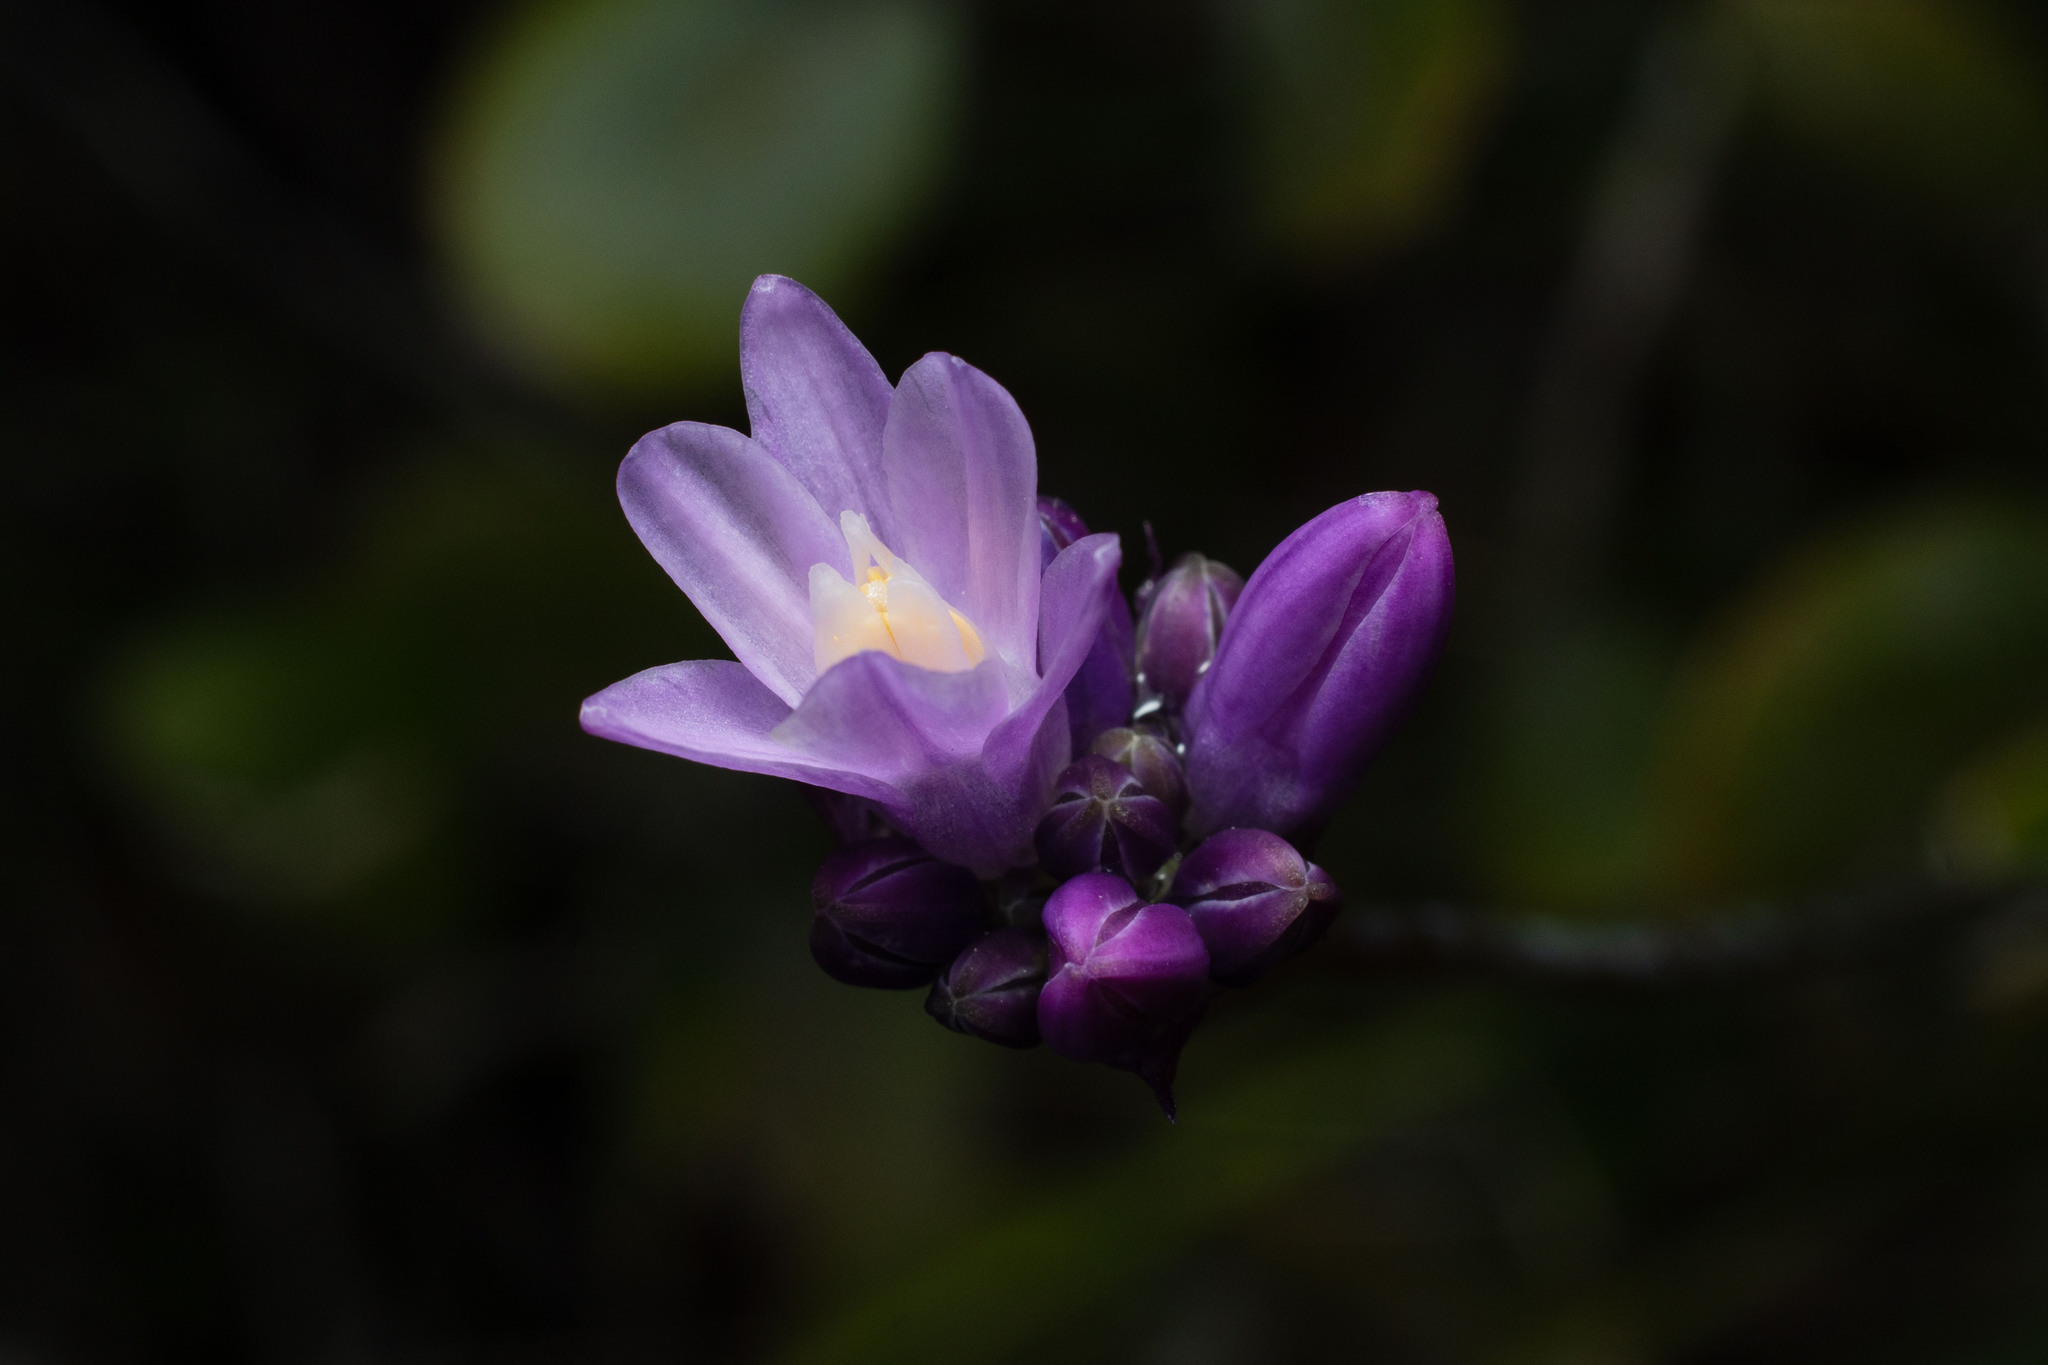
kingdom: Plantae
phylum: Tracheophyta
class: Liliopsida
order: Asparagales
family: Asparagaceae
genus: Dipterostemon
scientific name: Dipterostemon capitatus
